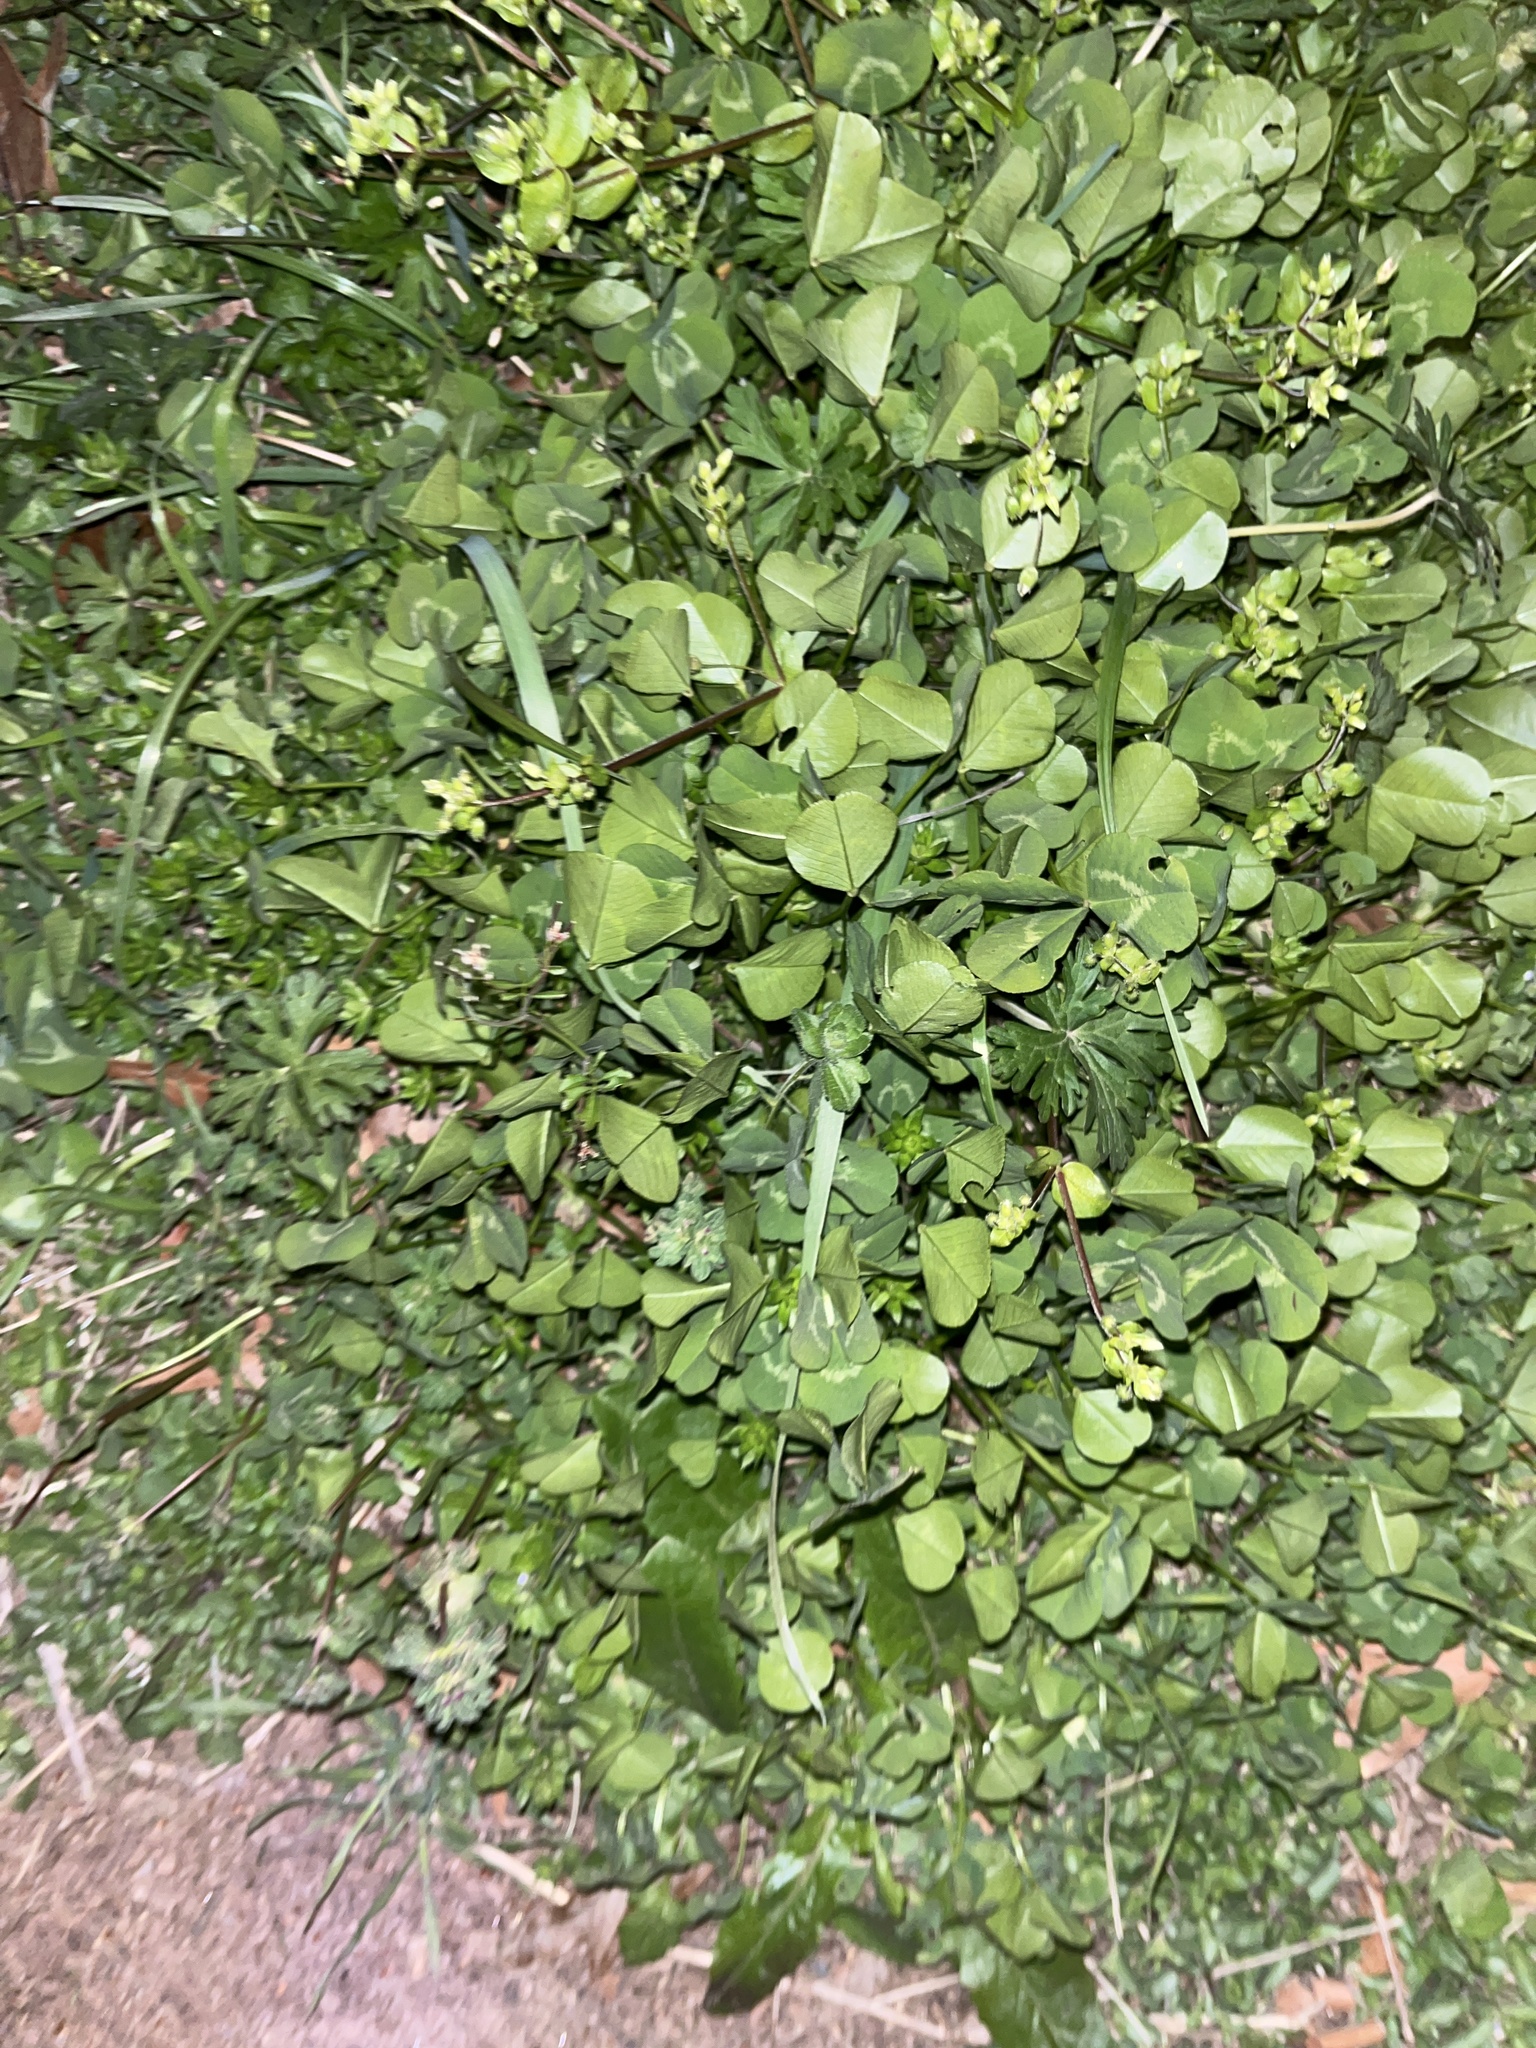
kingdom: Plantae
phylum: Tracheophyta
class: Magnoliopsida
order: Fabales
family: Fabaceae
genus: Trifolium
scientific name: Trifolium repens
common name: White clover
